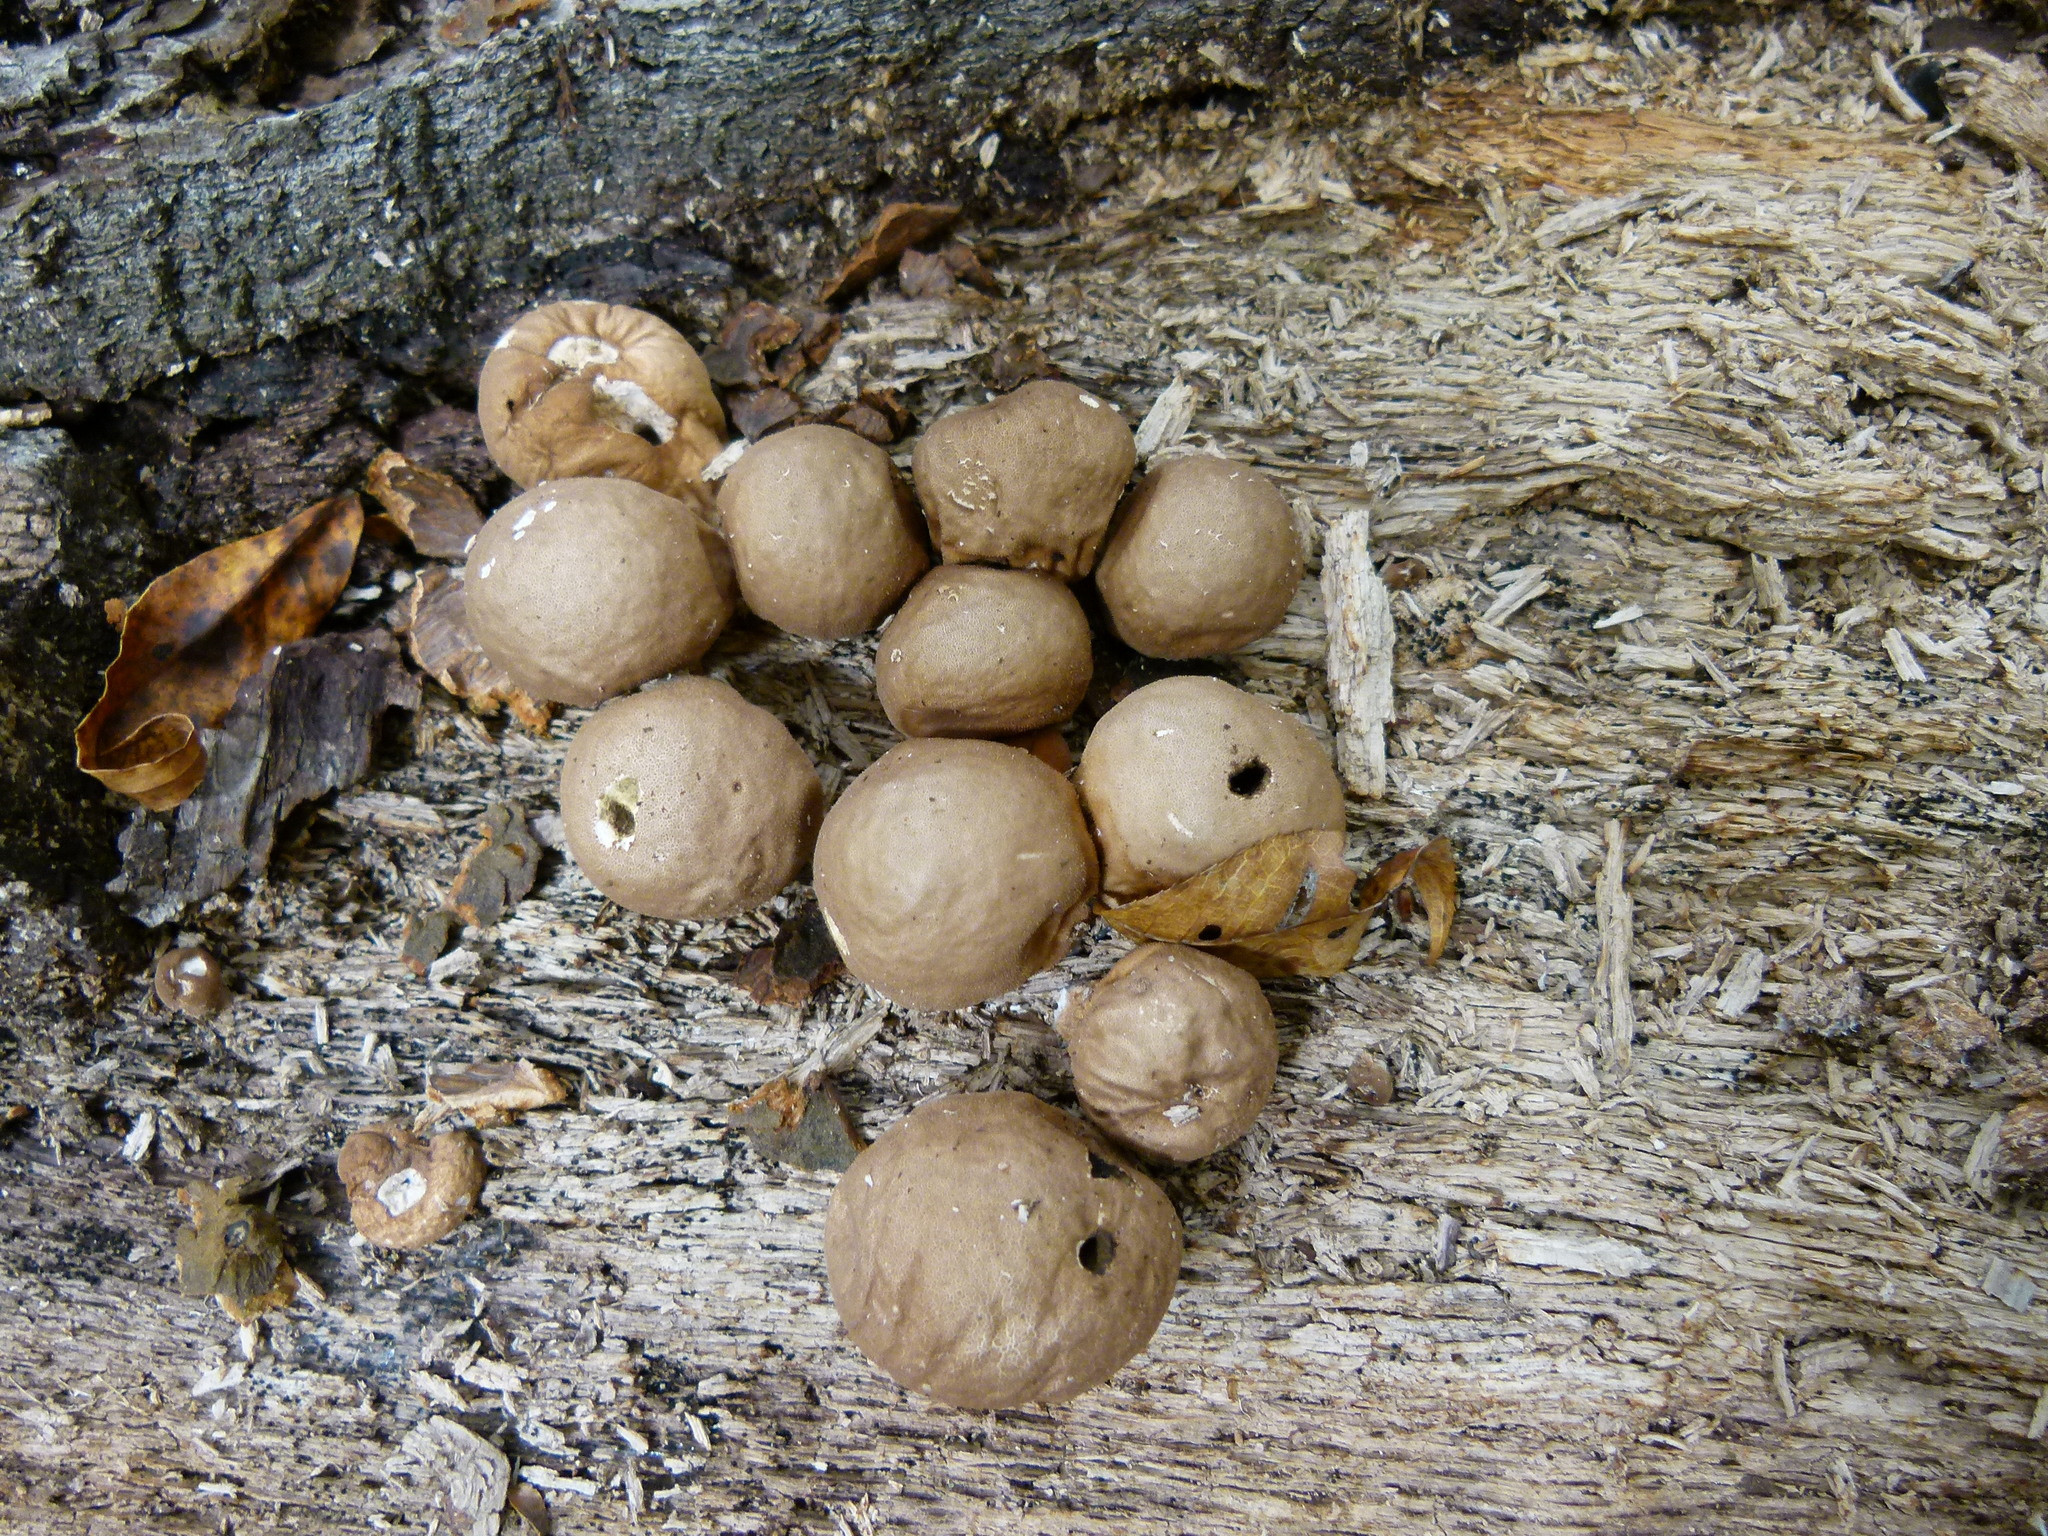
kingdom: Fungi
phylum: Basidiomycota
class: Agaricomycetes
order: Agaricales
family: Lycoperdaceae
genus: Apioperdon
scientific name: Apioperdon pyriforme
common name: Pear-shaped puffball
